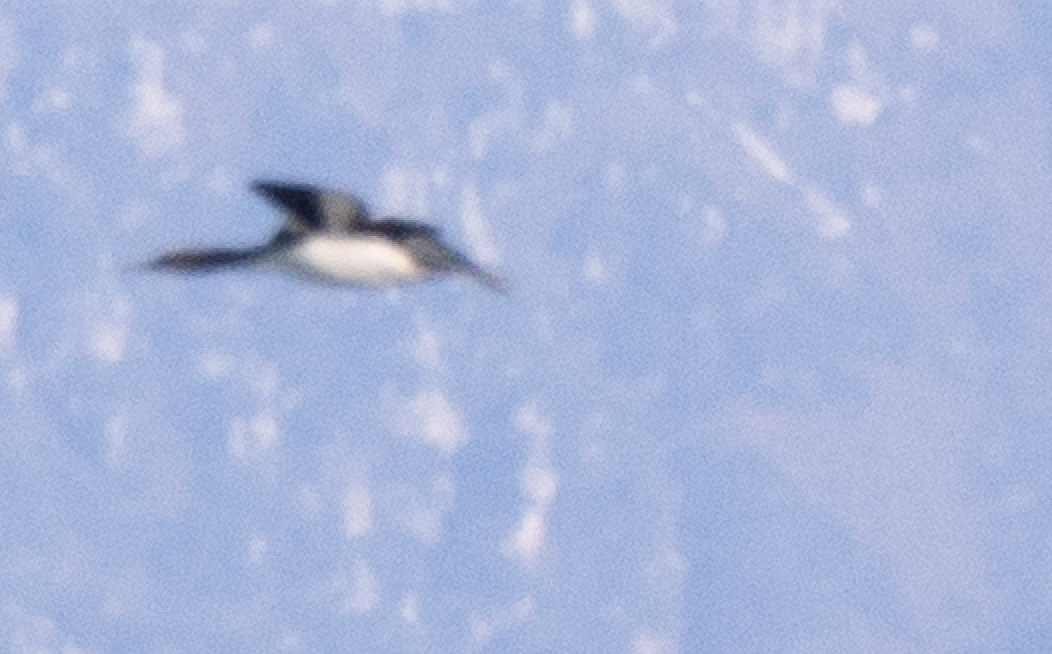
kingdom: Animalia
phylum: Chordata
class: Aves
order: Anseriformes
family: Anatidae
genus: Mergus
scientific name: Mergus serrator
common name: Red-breasted merganser
